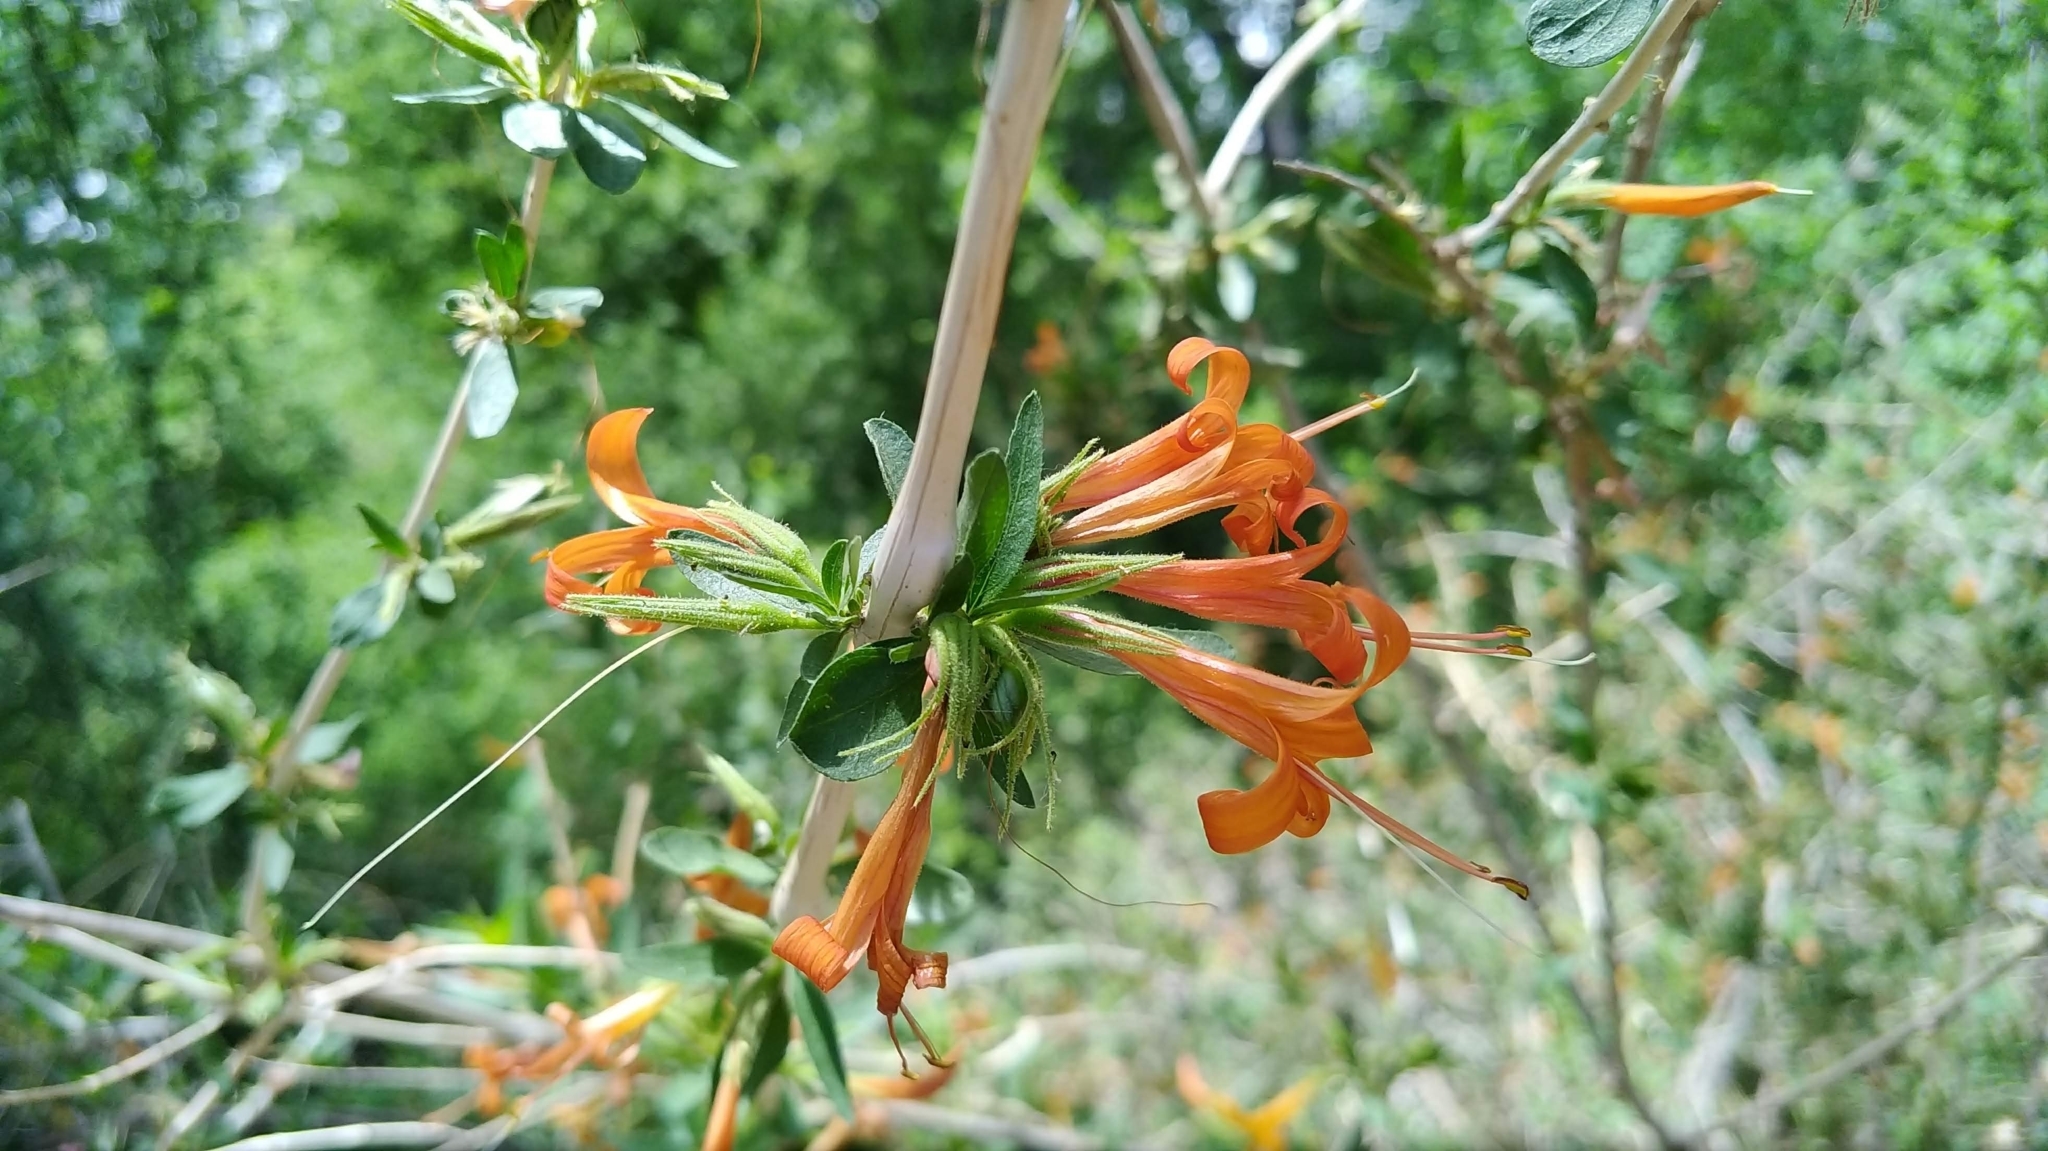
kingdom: Plantae
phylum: Tracheophyta
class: Magnoliopsida
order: Lamiales
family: Acanthaceae
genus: Anisacanthus
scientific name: Anisacanthus thurberi
